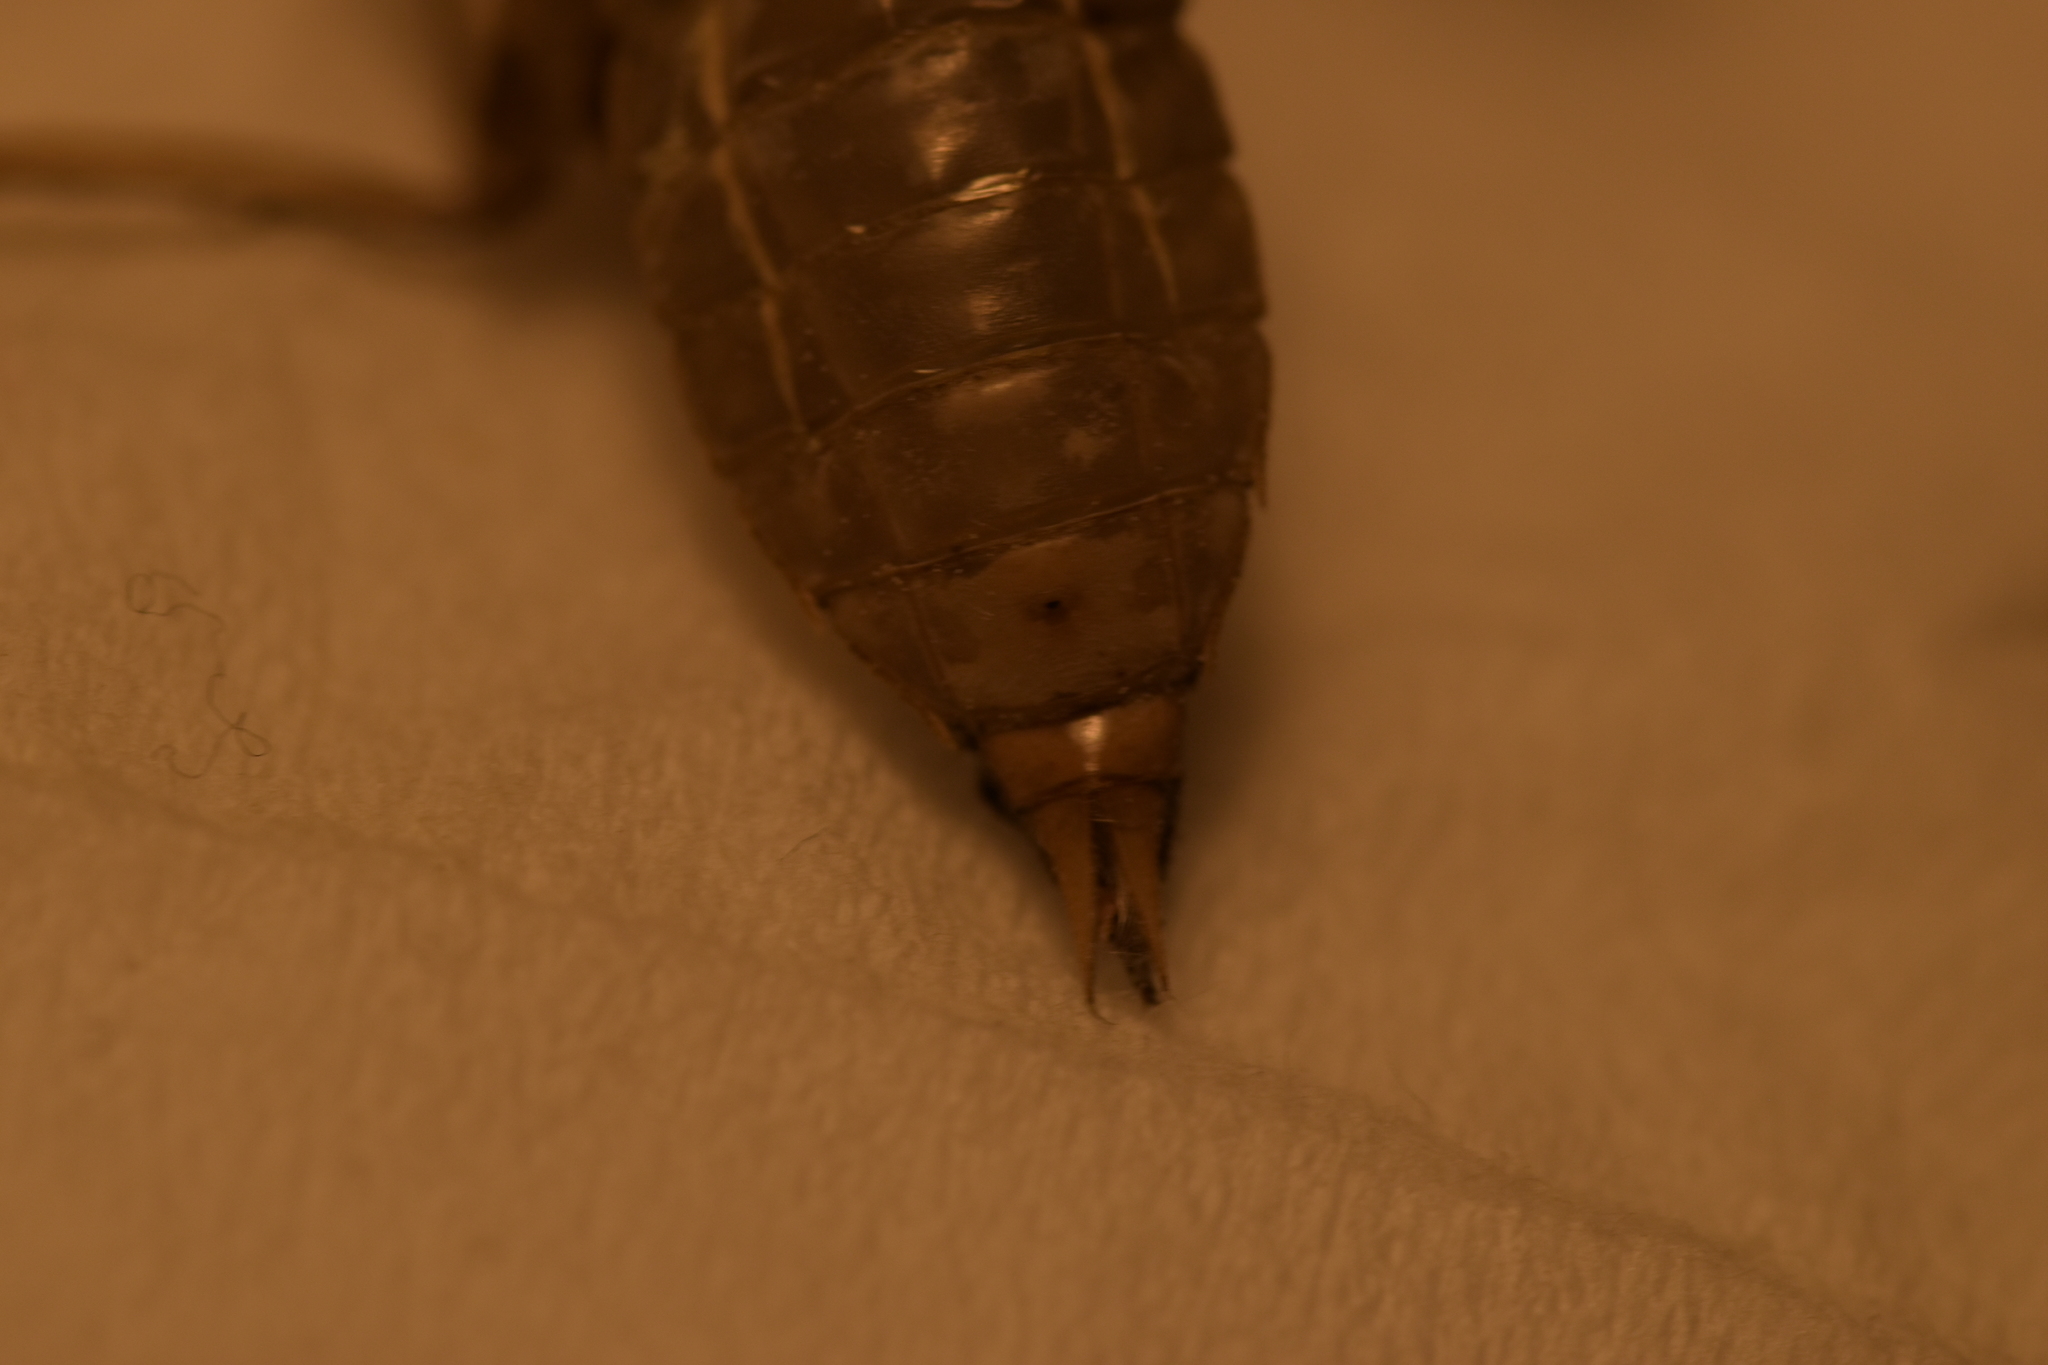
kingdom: Animalia
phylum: Arthropoda
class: Insecta
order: Odonata
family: Libellulidae
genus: Orthetrum
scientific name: Orthetrum cancellatum
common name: Black-tailed skimmer
